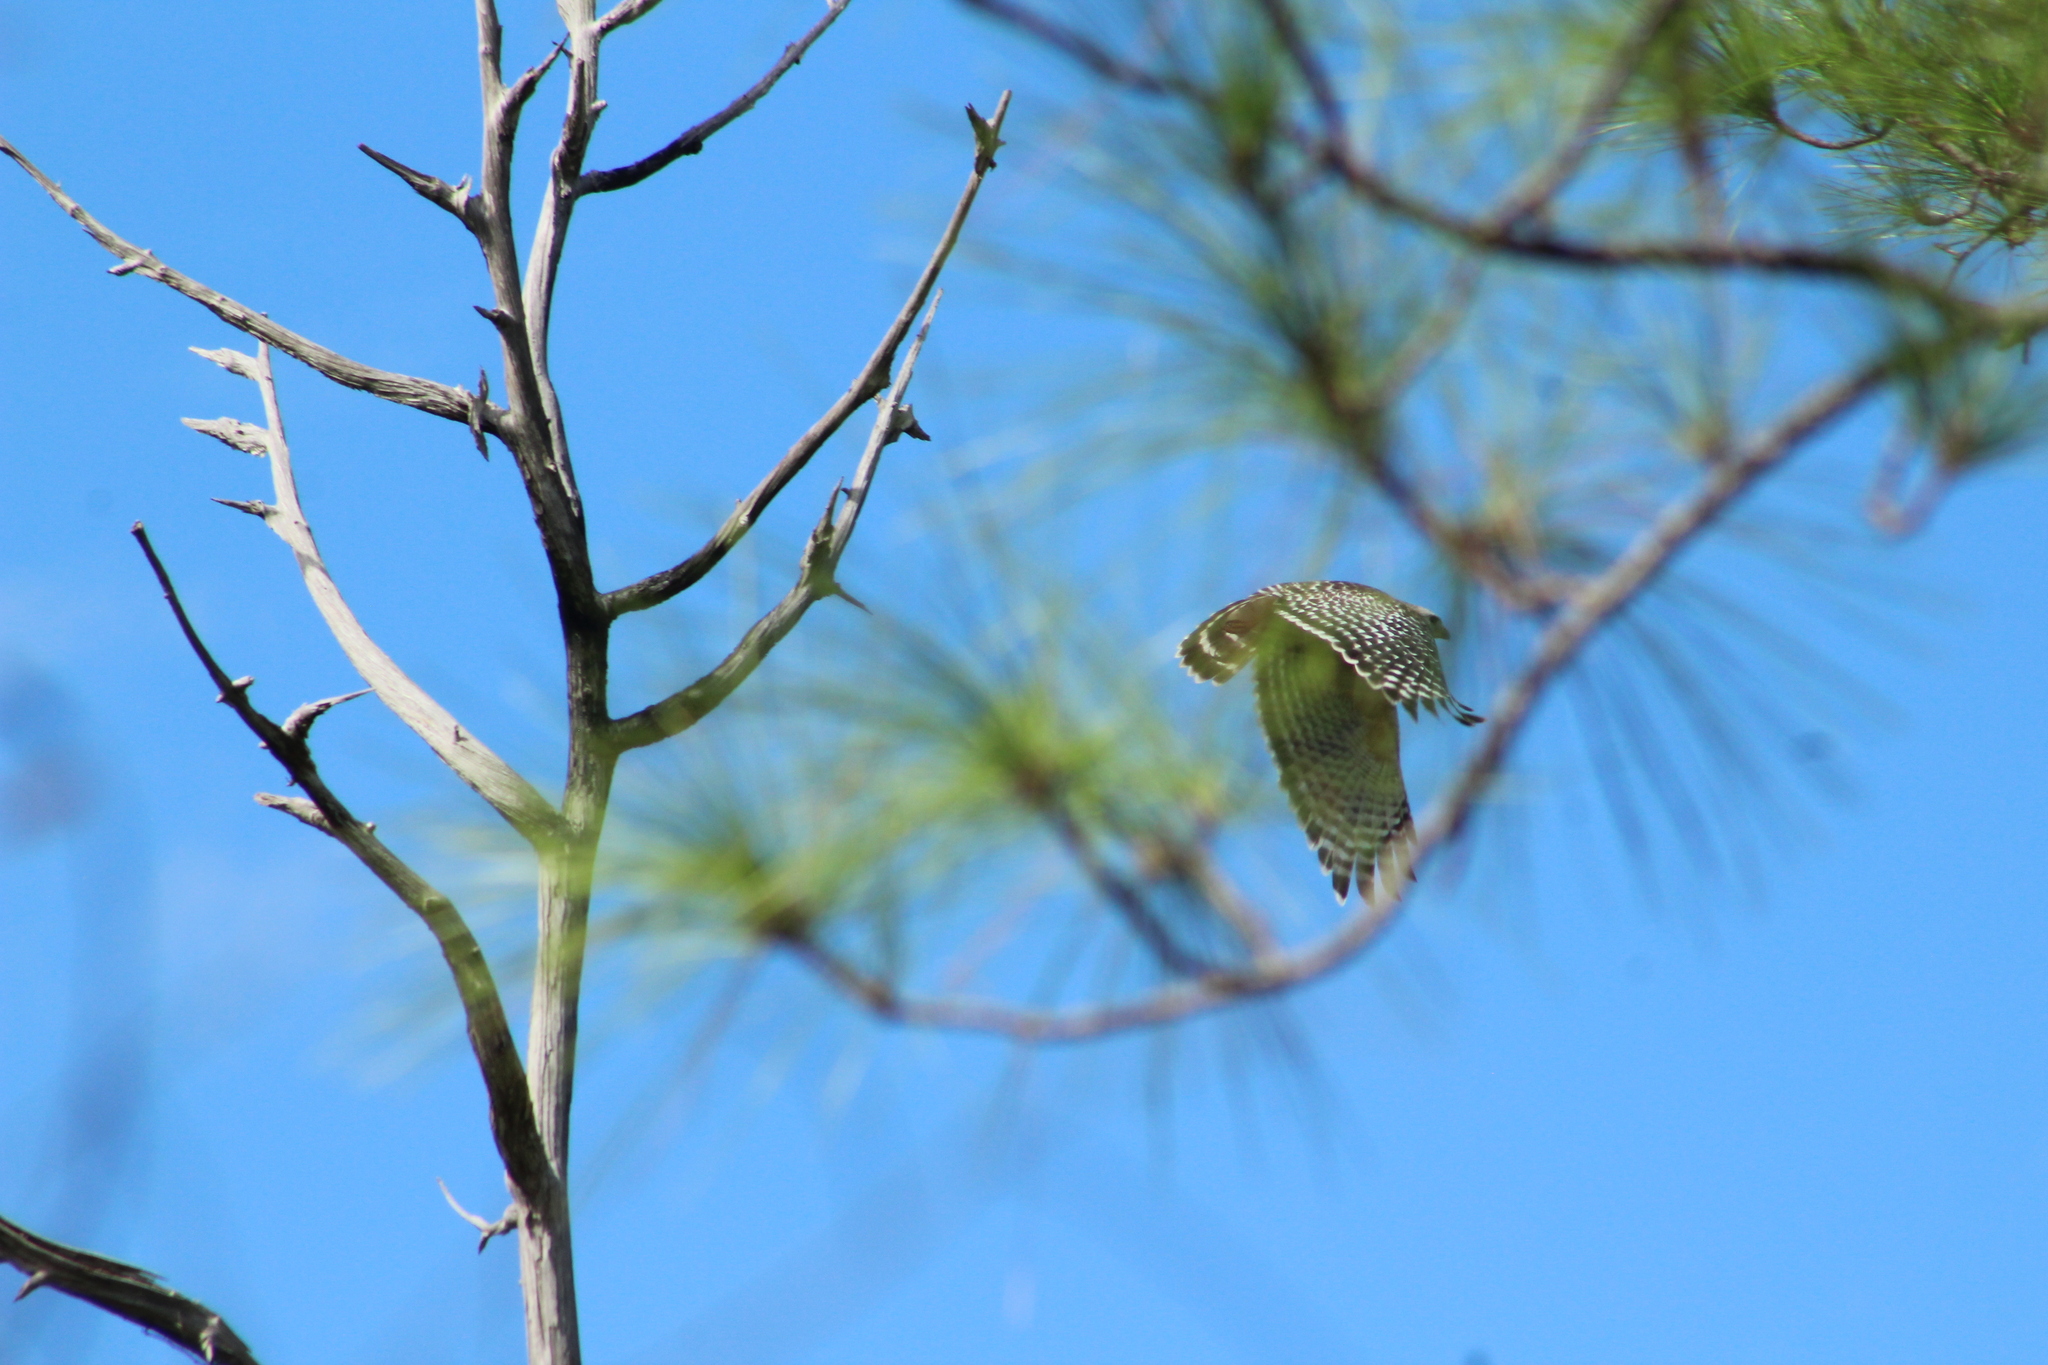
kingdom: Animalia
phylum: Chordata
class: Aves
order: Accipitriformes
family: Accipitridae
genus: Buteo
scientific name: Buteo lineatus
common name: Red-shouldered hawk
